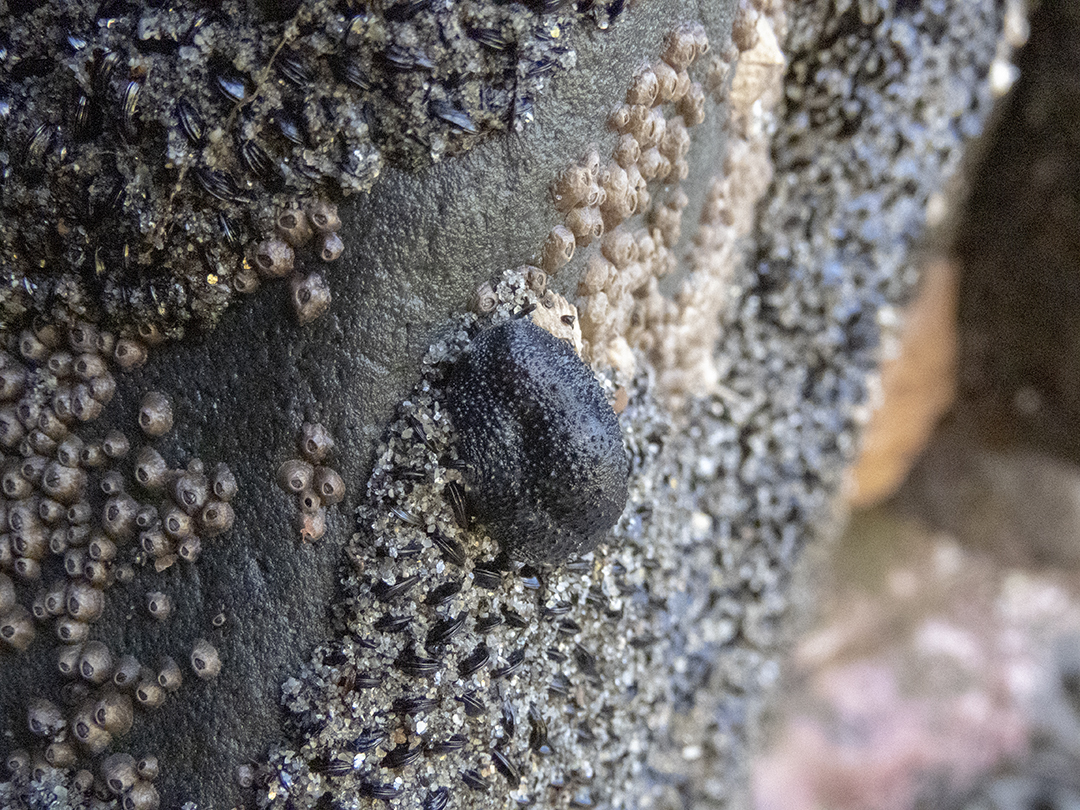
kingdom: Animalia
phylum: Mollusca
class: Gastropoda
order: Systellommatophora
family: Onchidiidae
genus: Onchidella
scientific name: Onchidella nigricans
